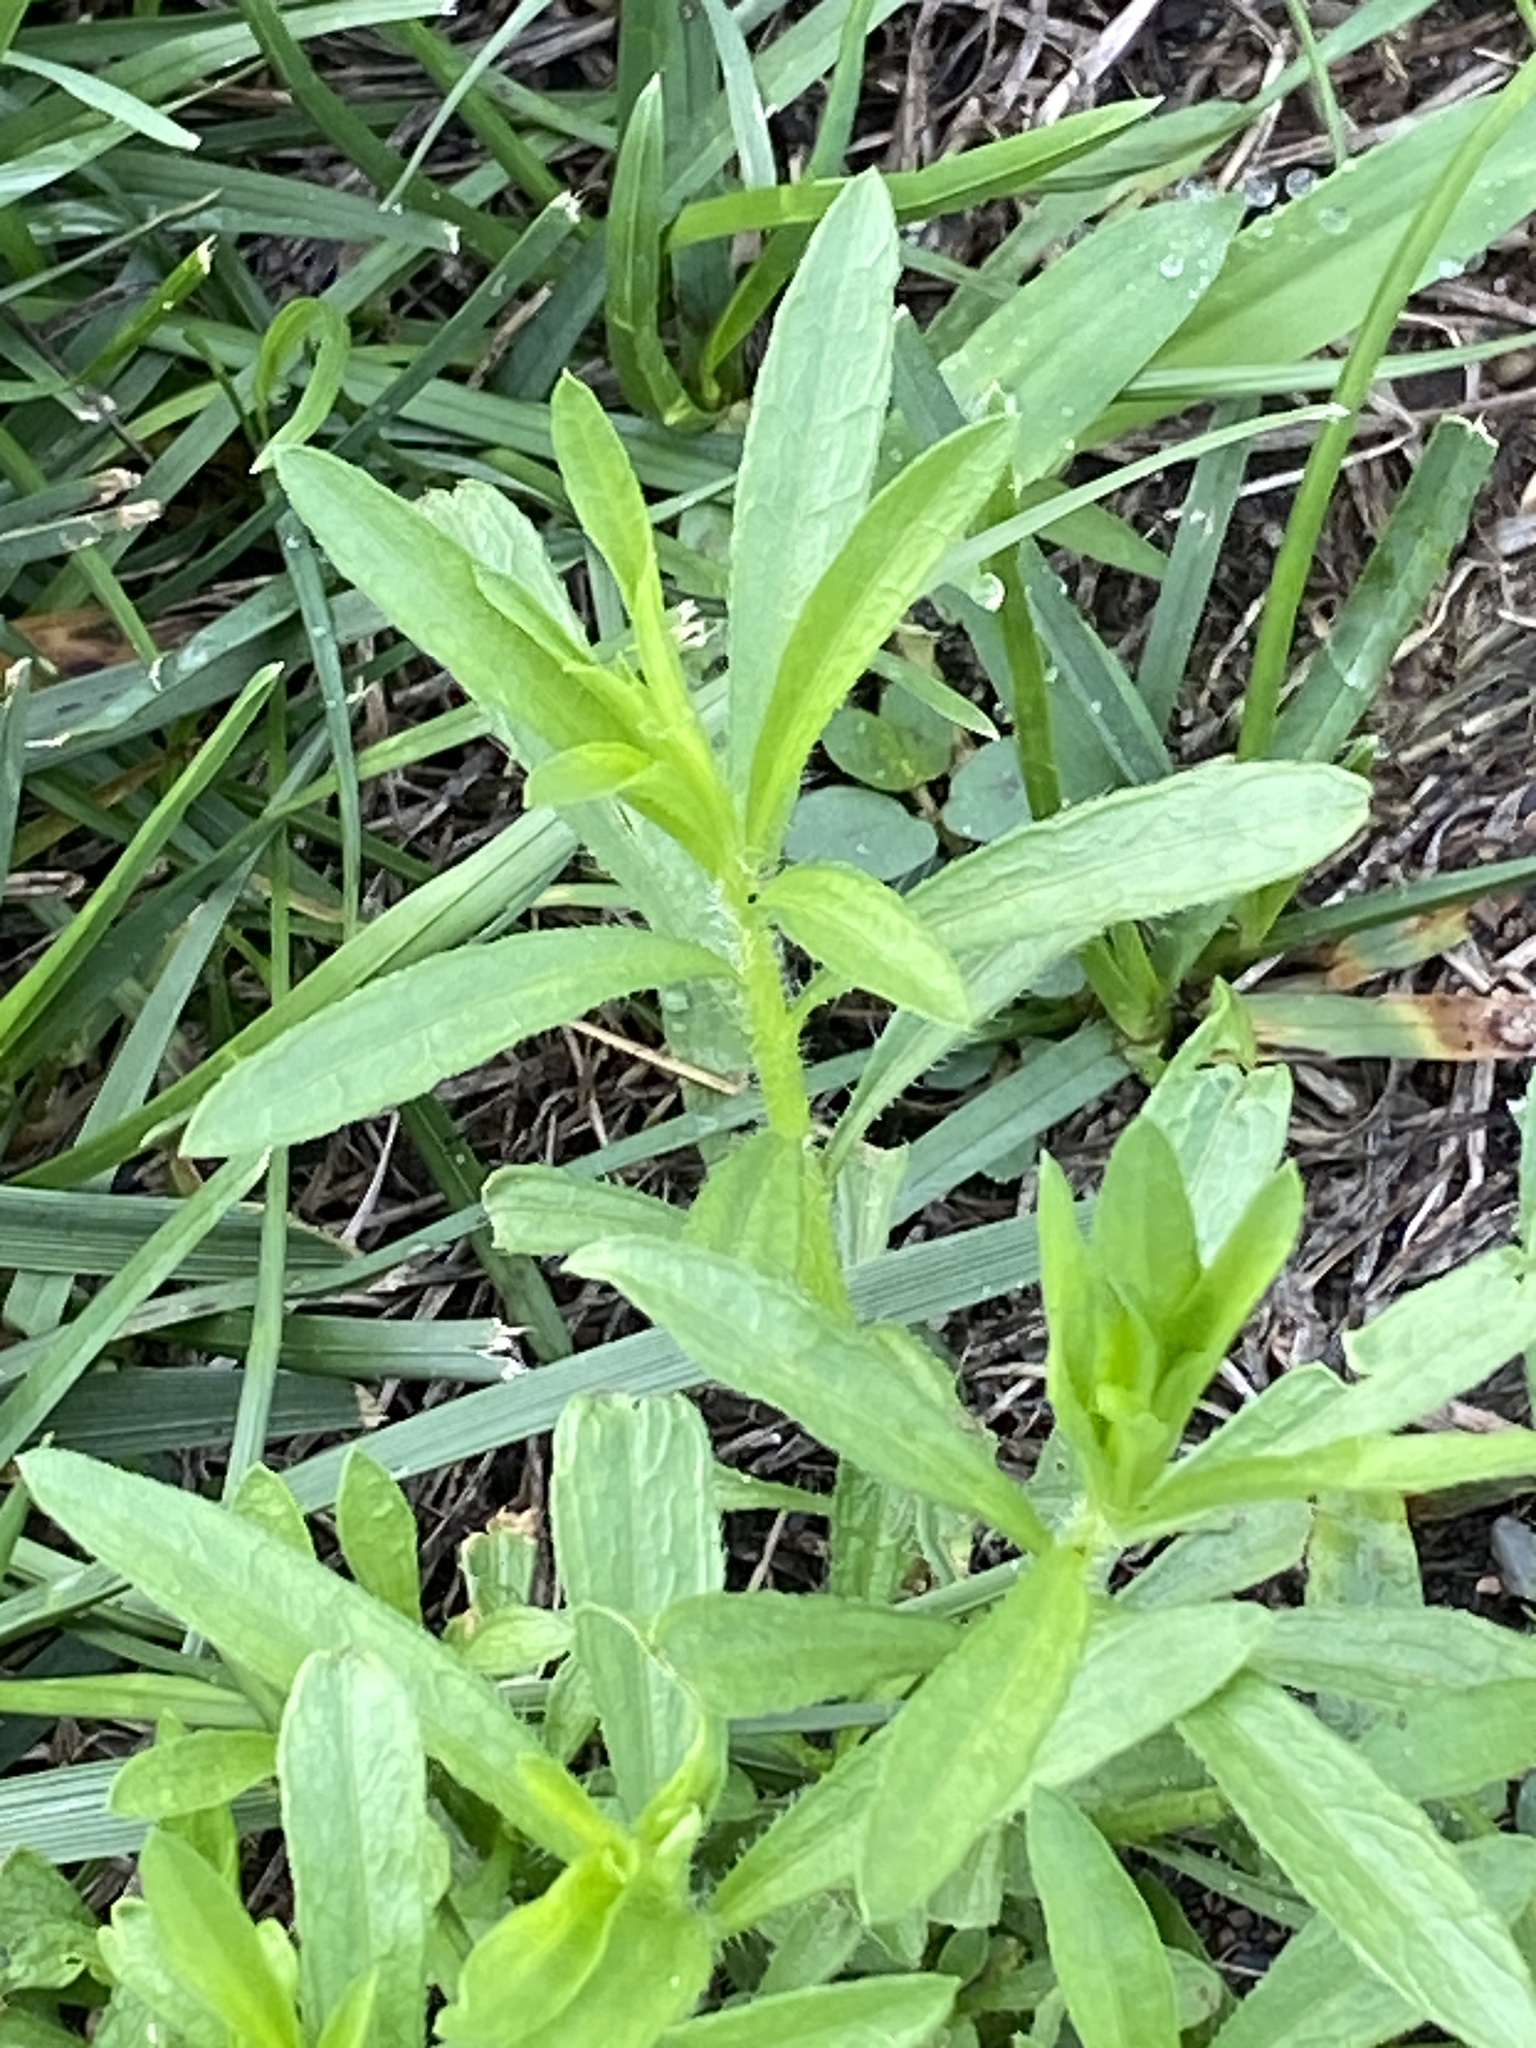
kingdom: Plantae
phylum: Tracheophyta
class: Magnoliopsida
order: Asterales
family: Asteraceae
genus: Erigeron
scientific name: Erigeron strigosus
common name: Common eastern fleabane
